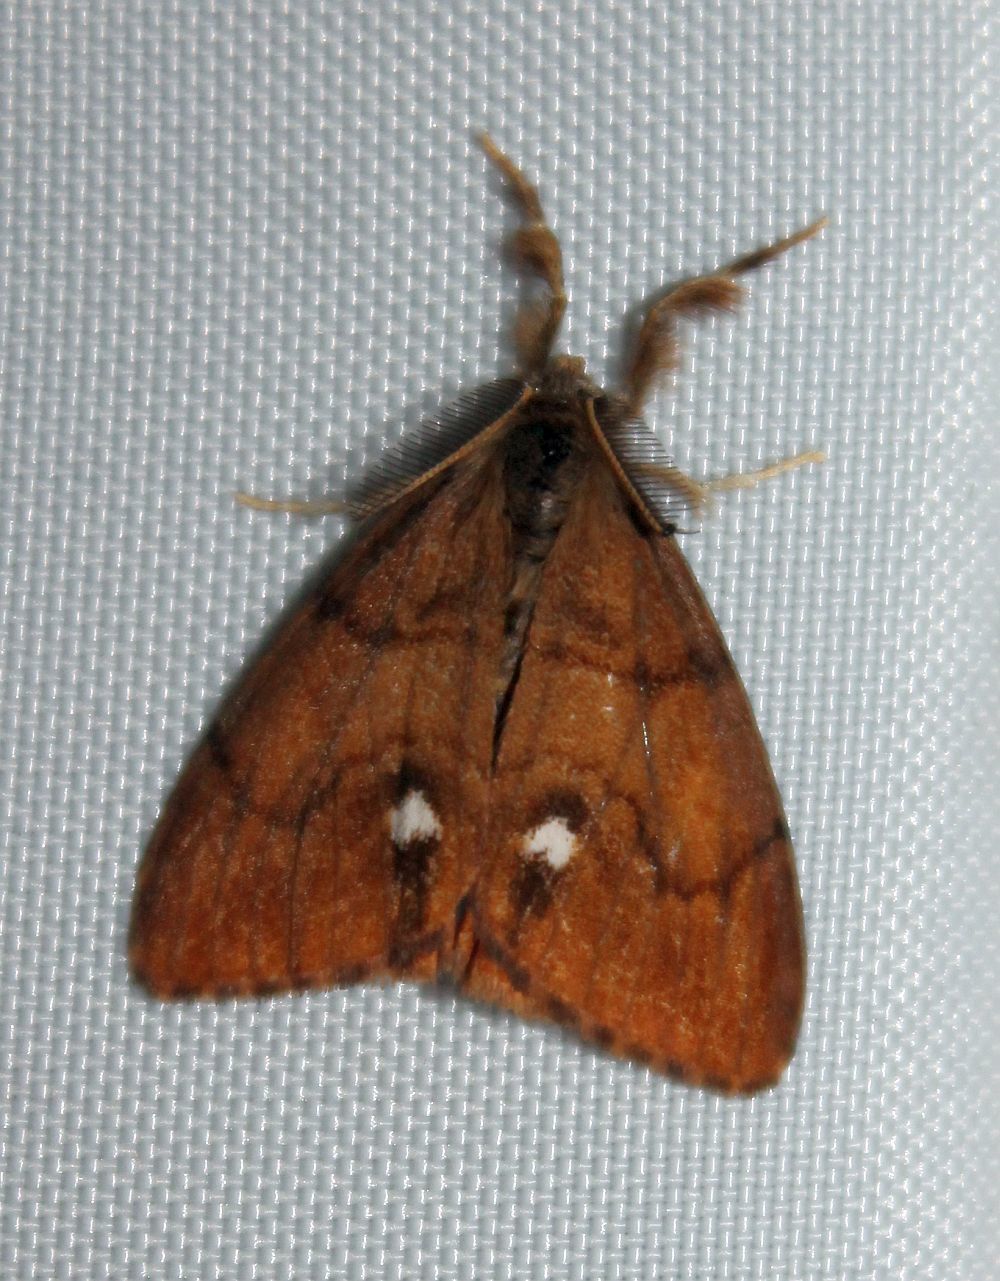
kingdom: Animalia
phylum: Arthropoda
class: Insecta
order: Lepidoptera
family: Erebidae
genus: Orgyia
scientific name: Orgyia antiqua
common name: Vapourer
